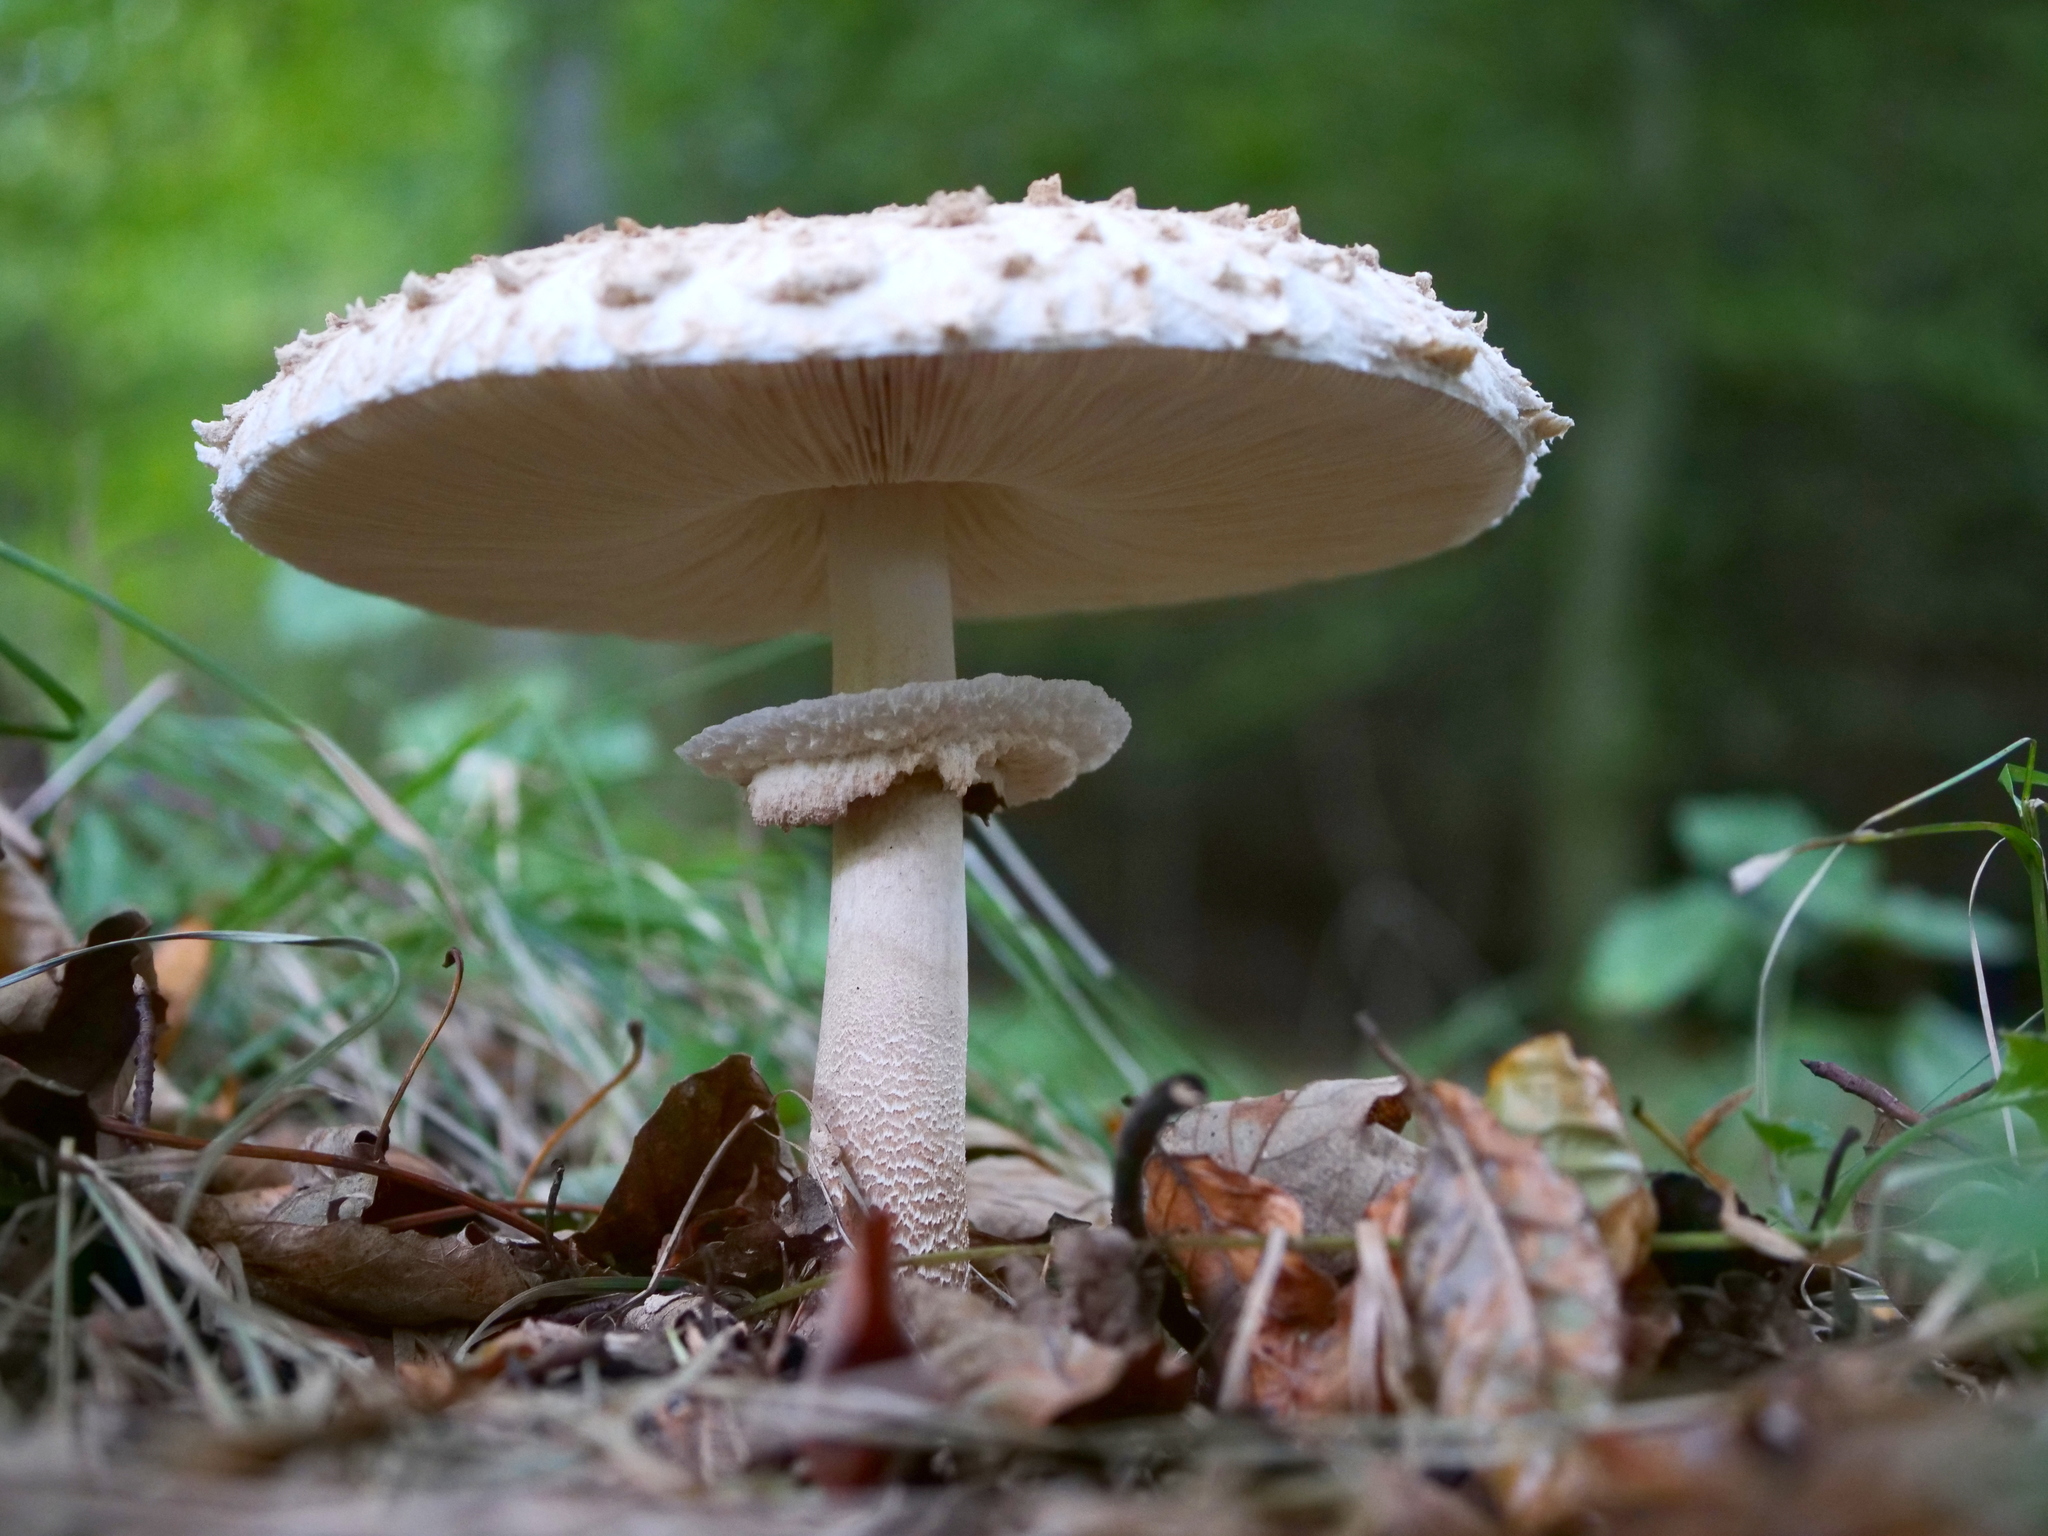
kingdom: Fungi
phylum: Basidiomycota
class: Agaricomycetes
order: Agaricales
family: Agaricaceae
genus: Macrolepiota
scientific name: Macrolepiota procera
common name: Parasol
